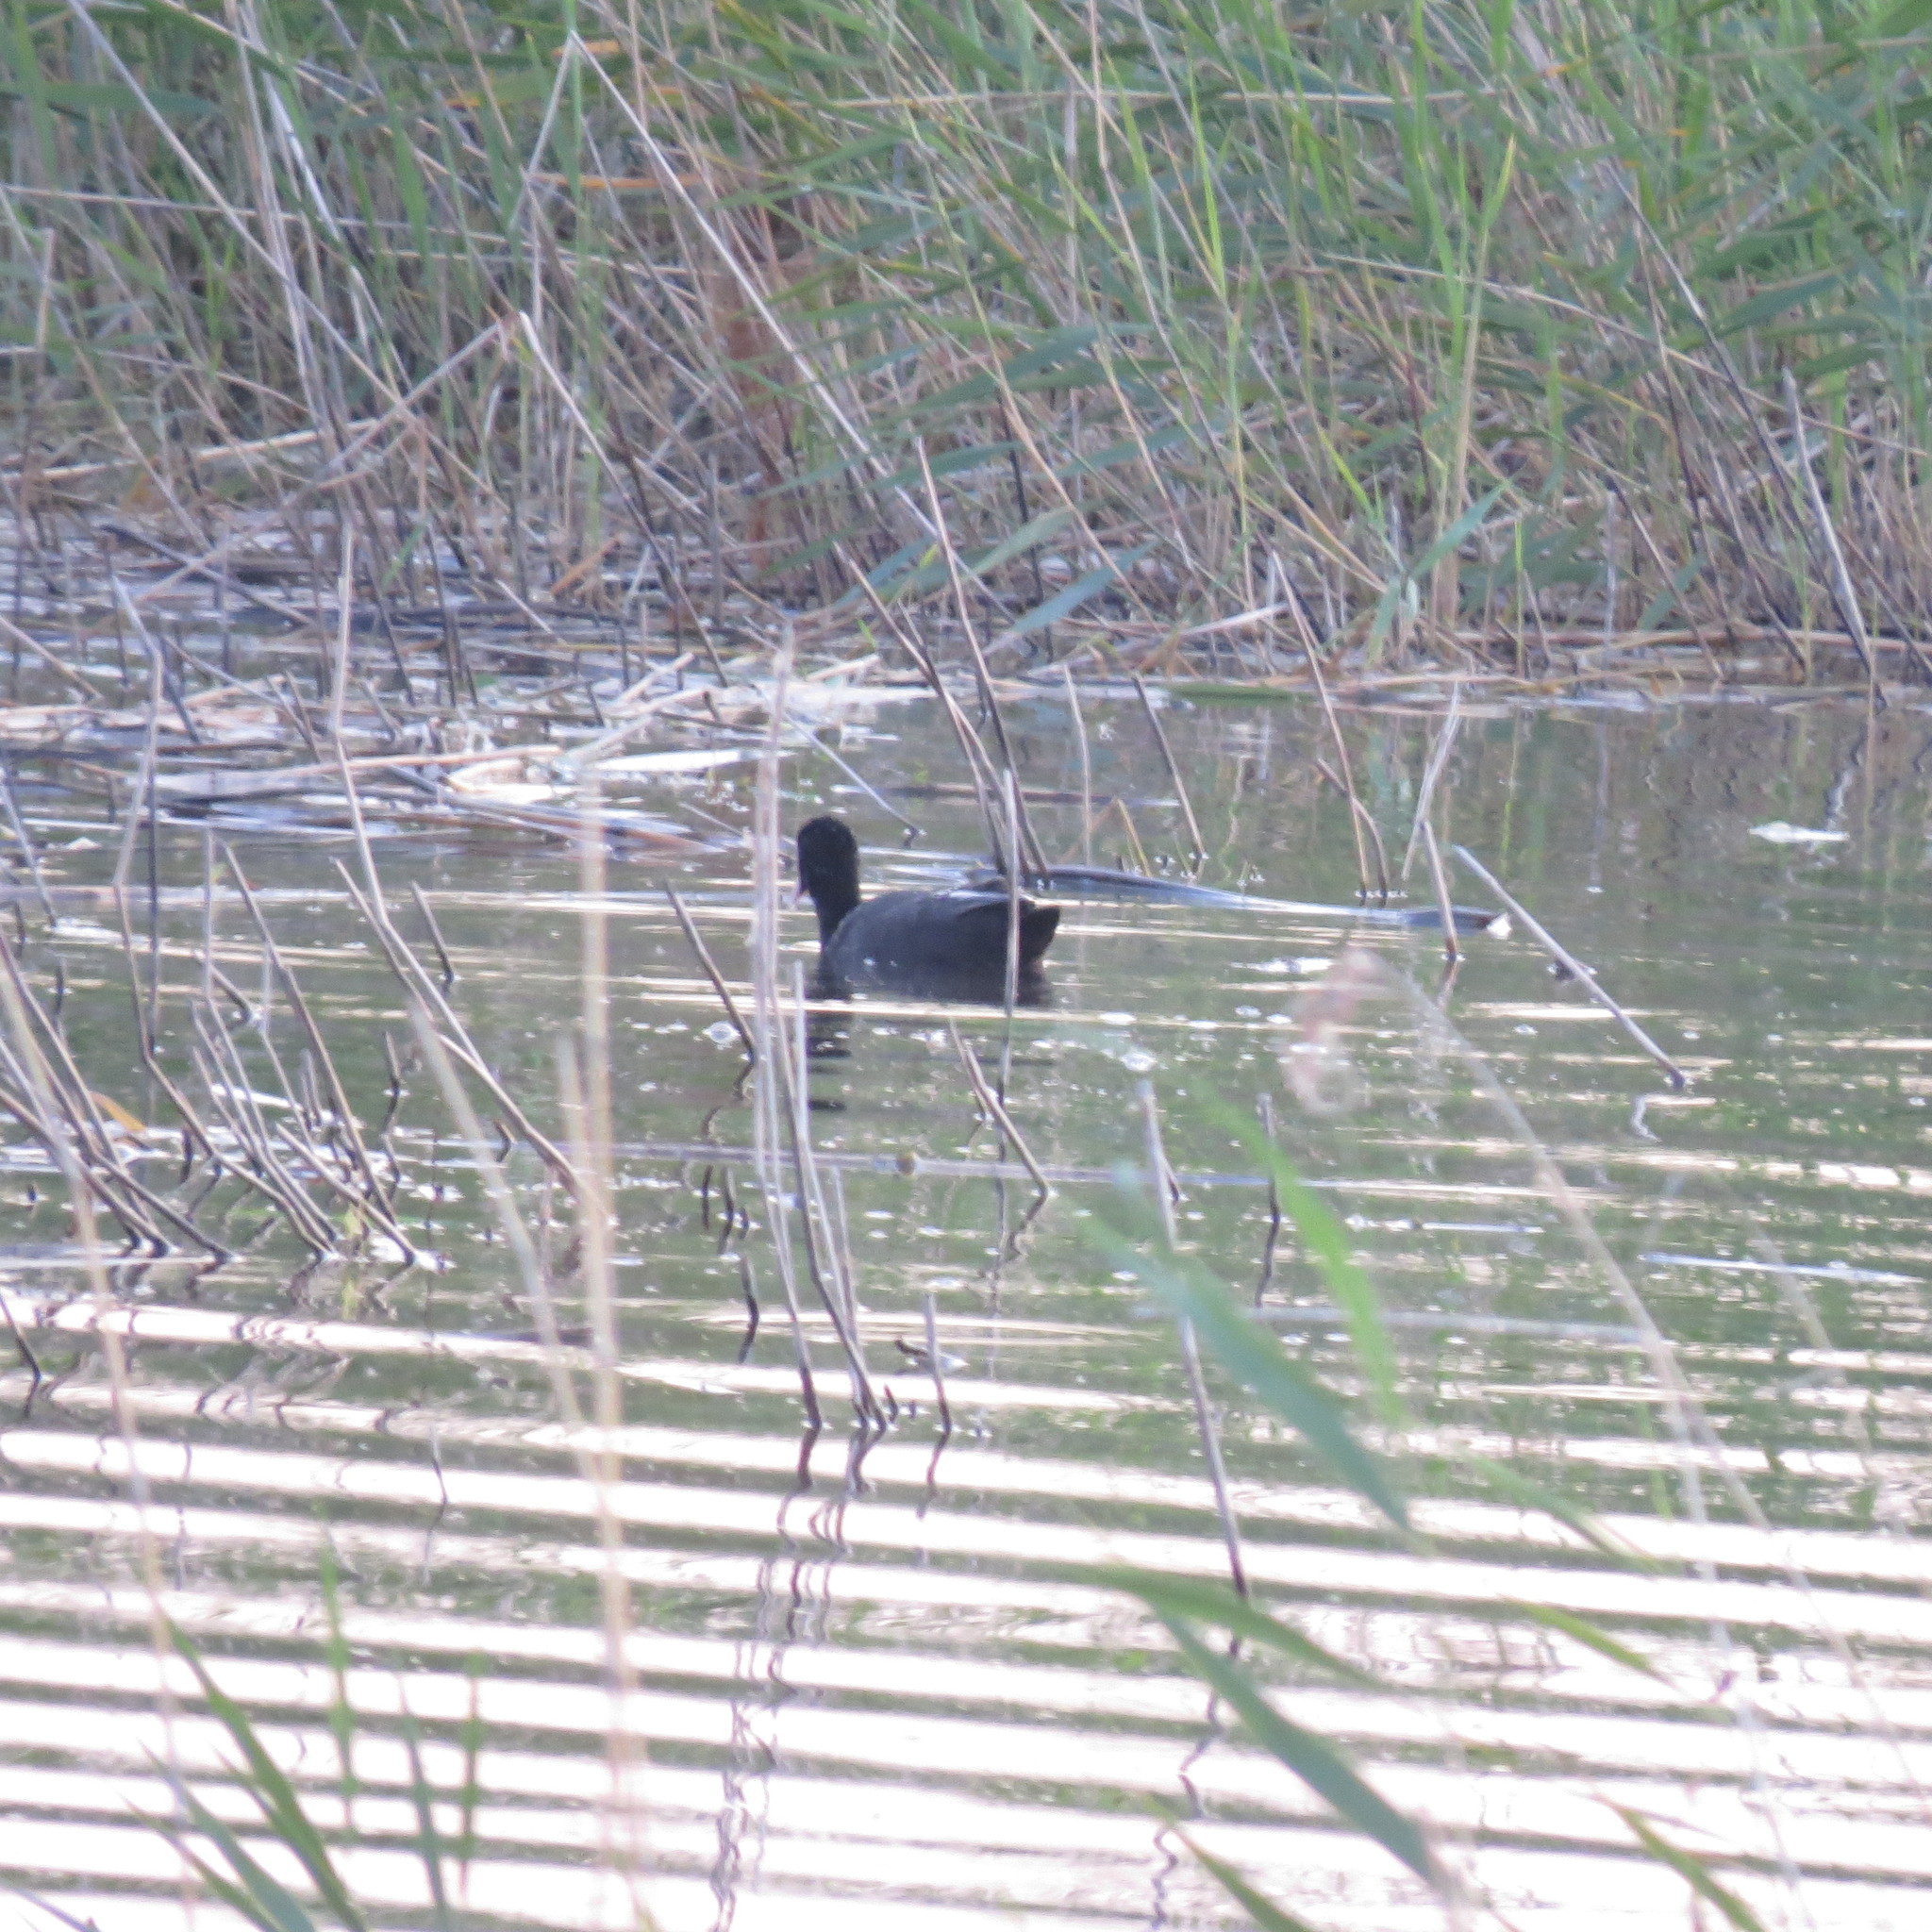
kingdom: Animalia
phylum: Chordata
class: Aves
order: Gruiformes
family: Rallidae
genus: Fulica
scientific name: Fulica atra
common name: Eurasian coot
